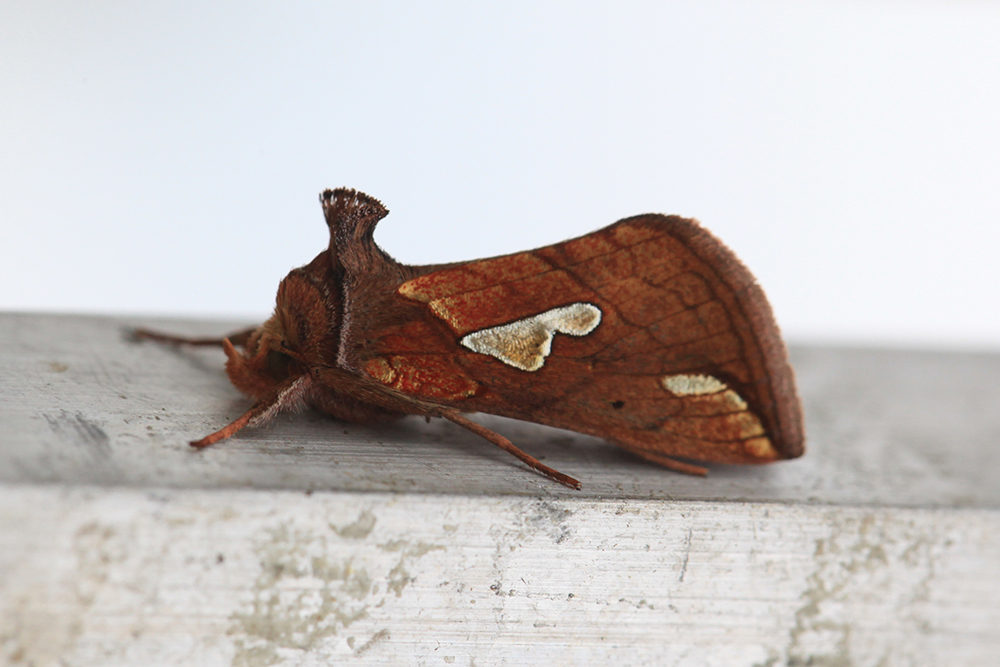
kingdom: Animalia
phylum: Arthropoda
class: Insecta
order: Lepidoptera
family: Noctuidae
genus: Plusia
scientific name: Plusia putnami
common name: Lempke's gold spot
